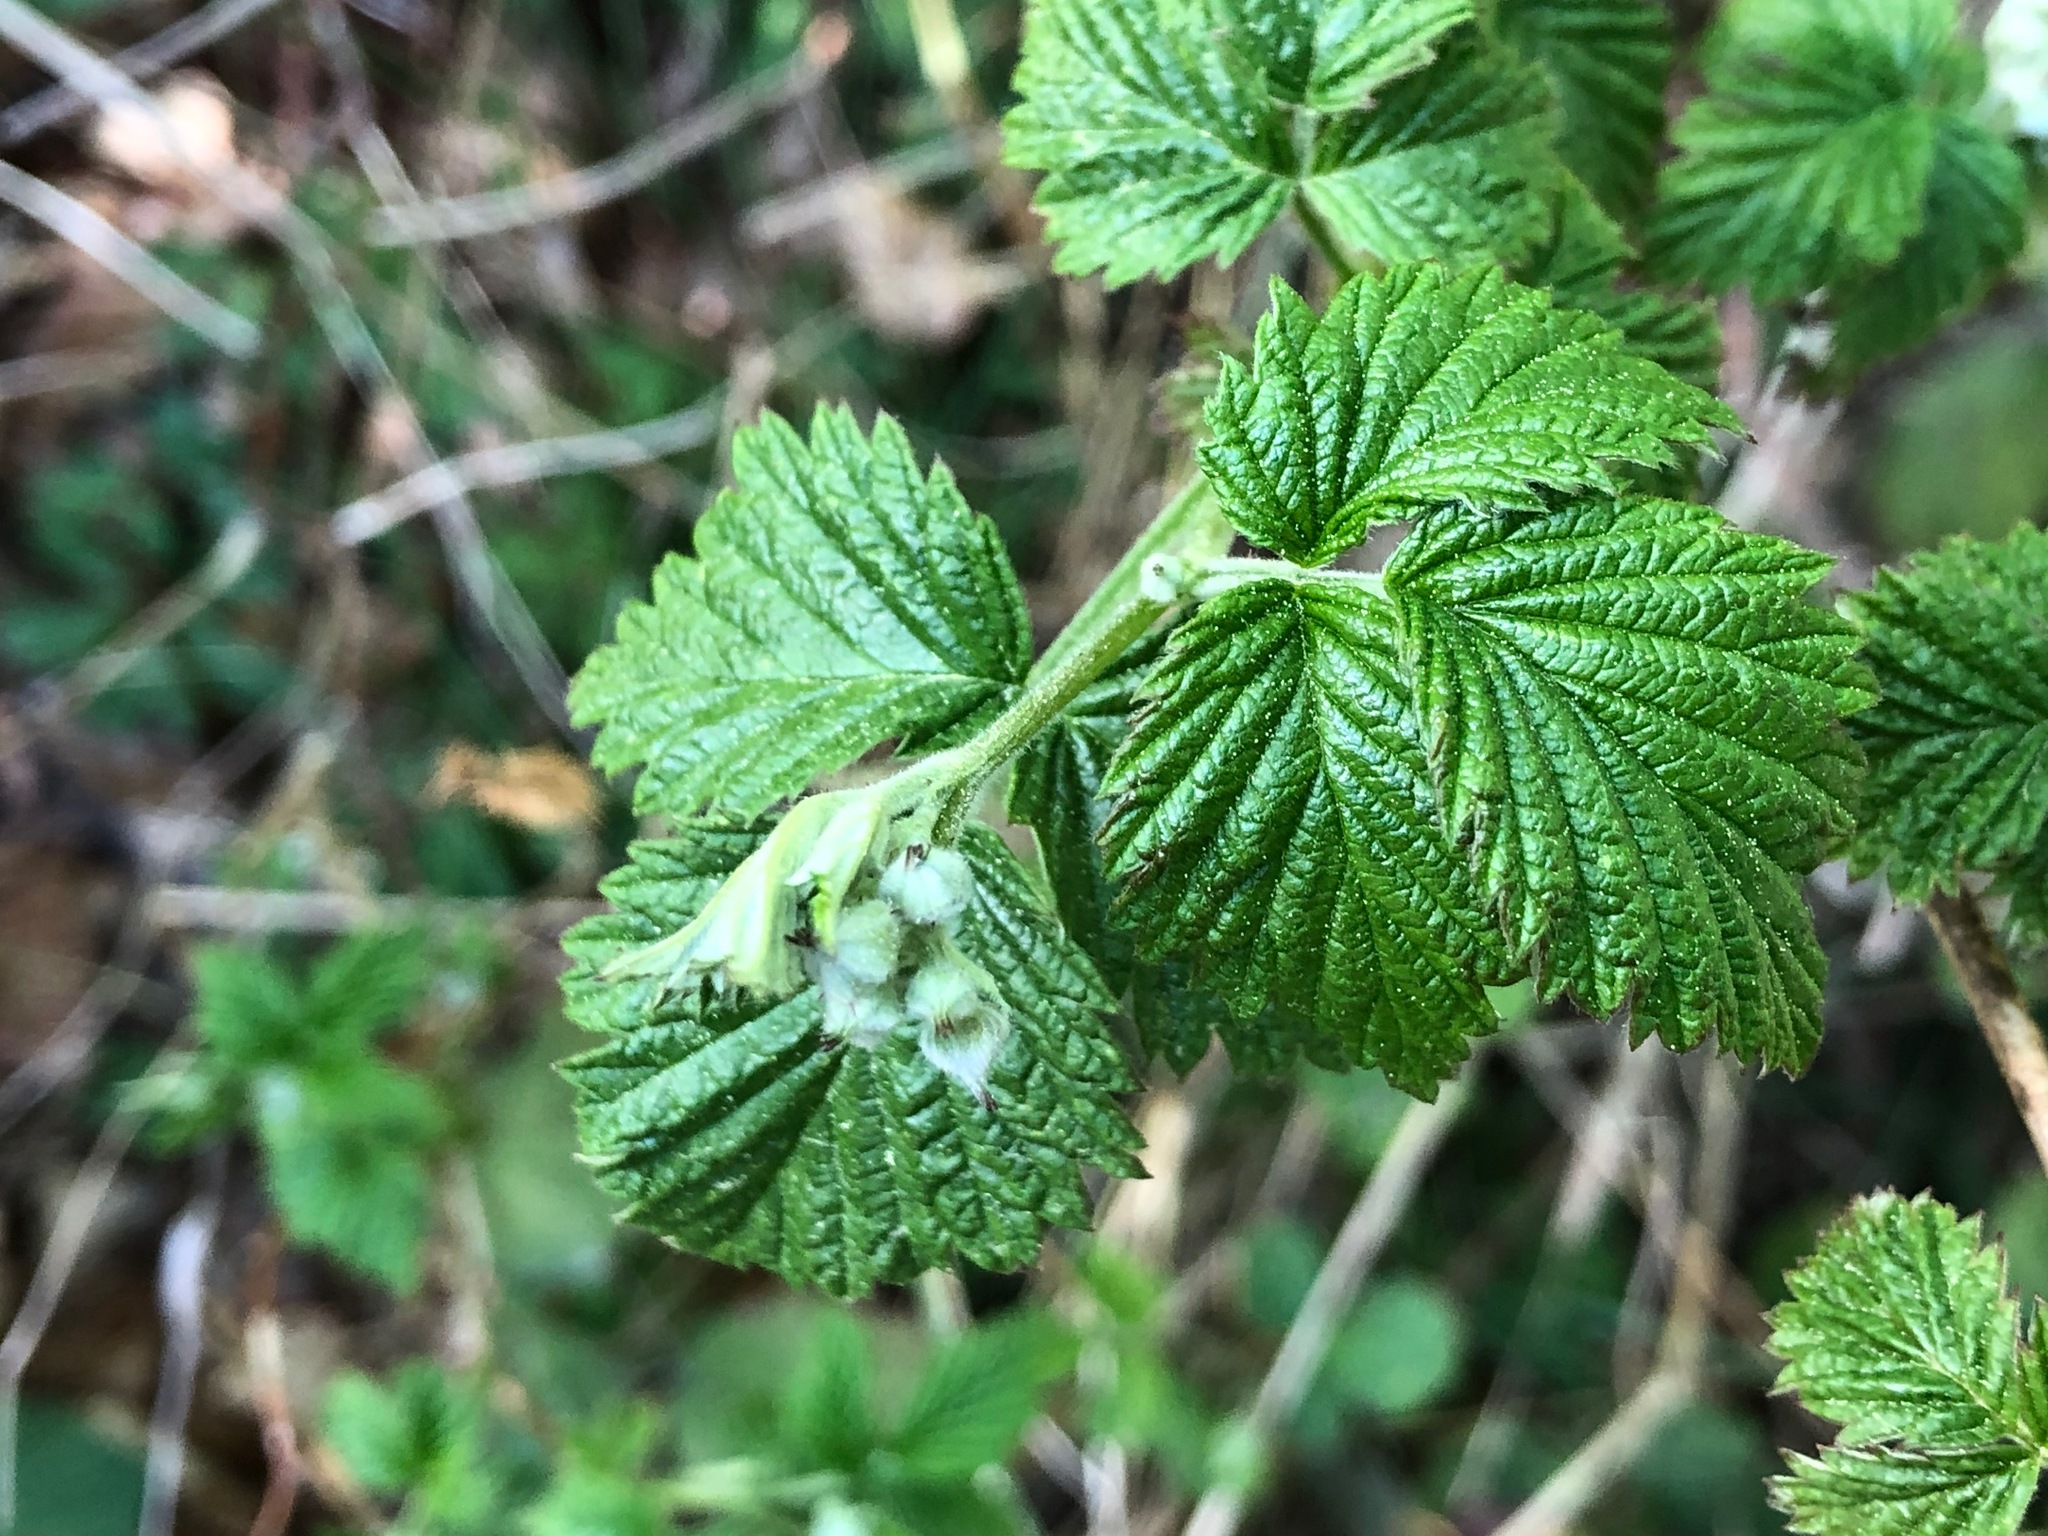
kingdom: Plantae
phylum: Tracheophyta
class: Magnoliopsida
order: Rosales
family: Rosaceae
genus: Rubus
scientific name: Rubus idaeus
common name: Raspberry
